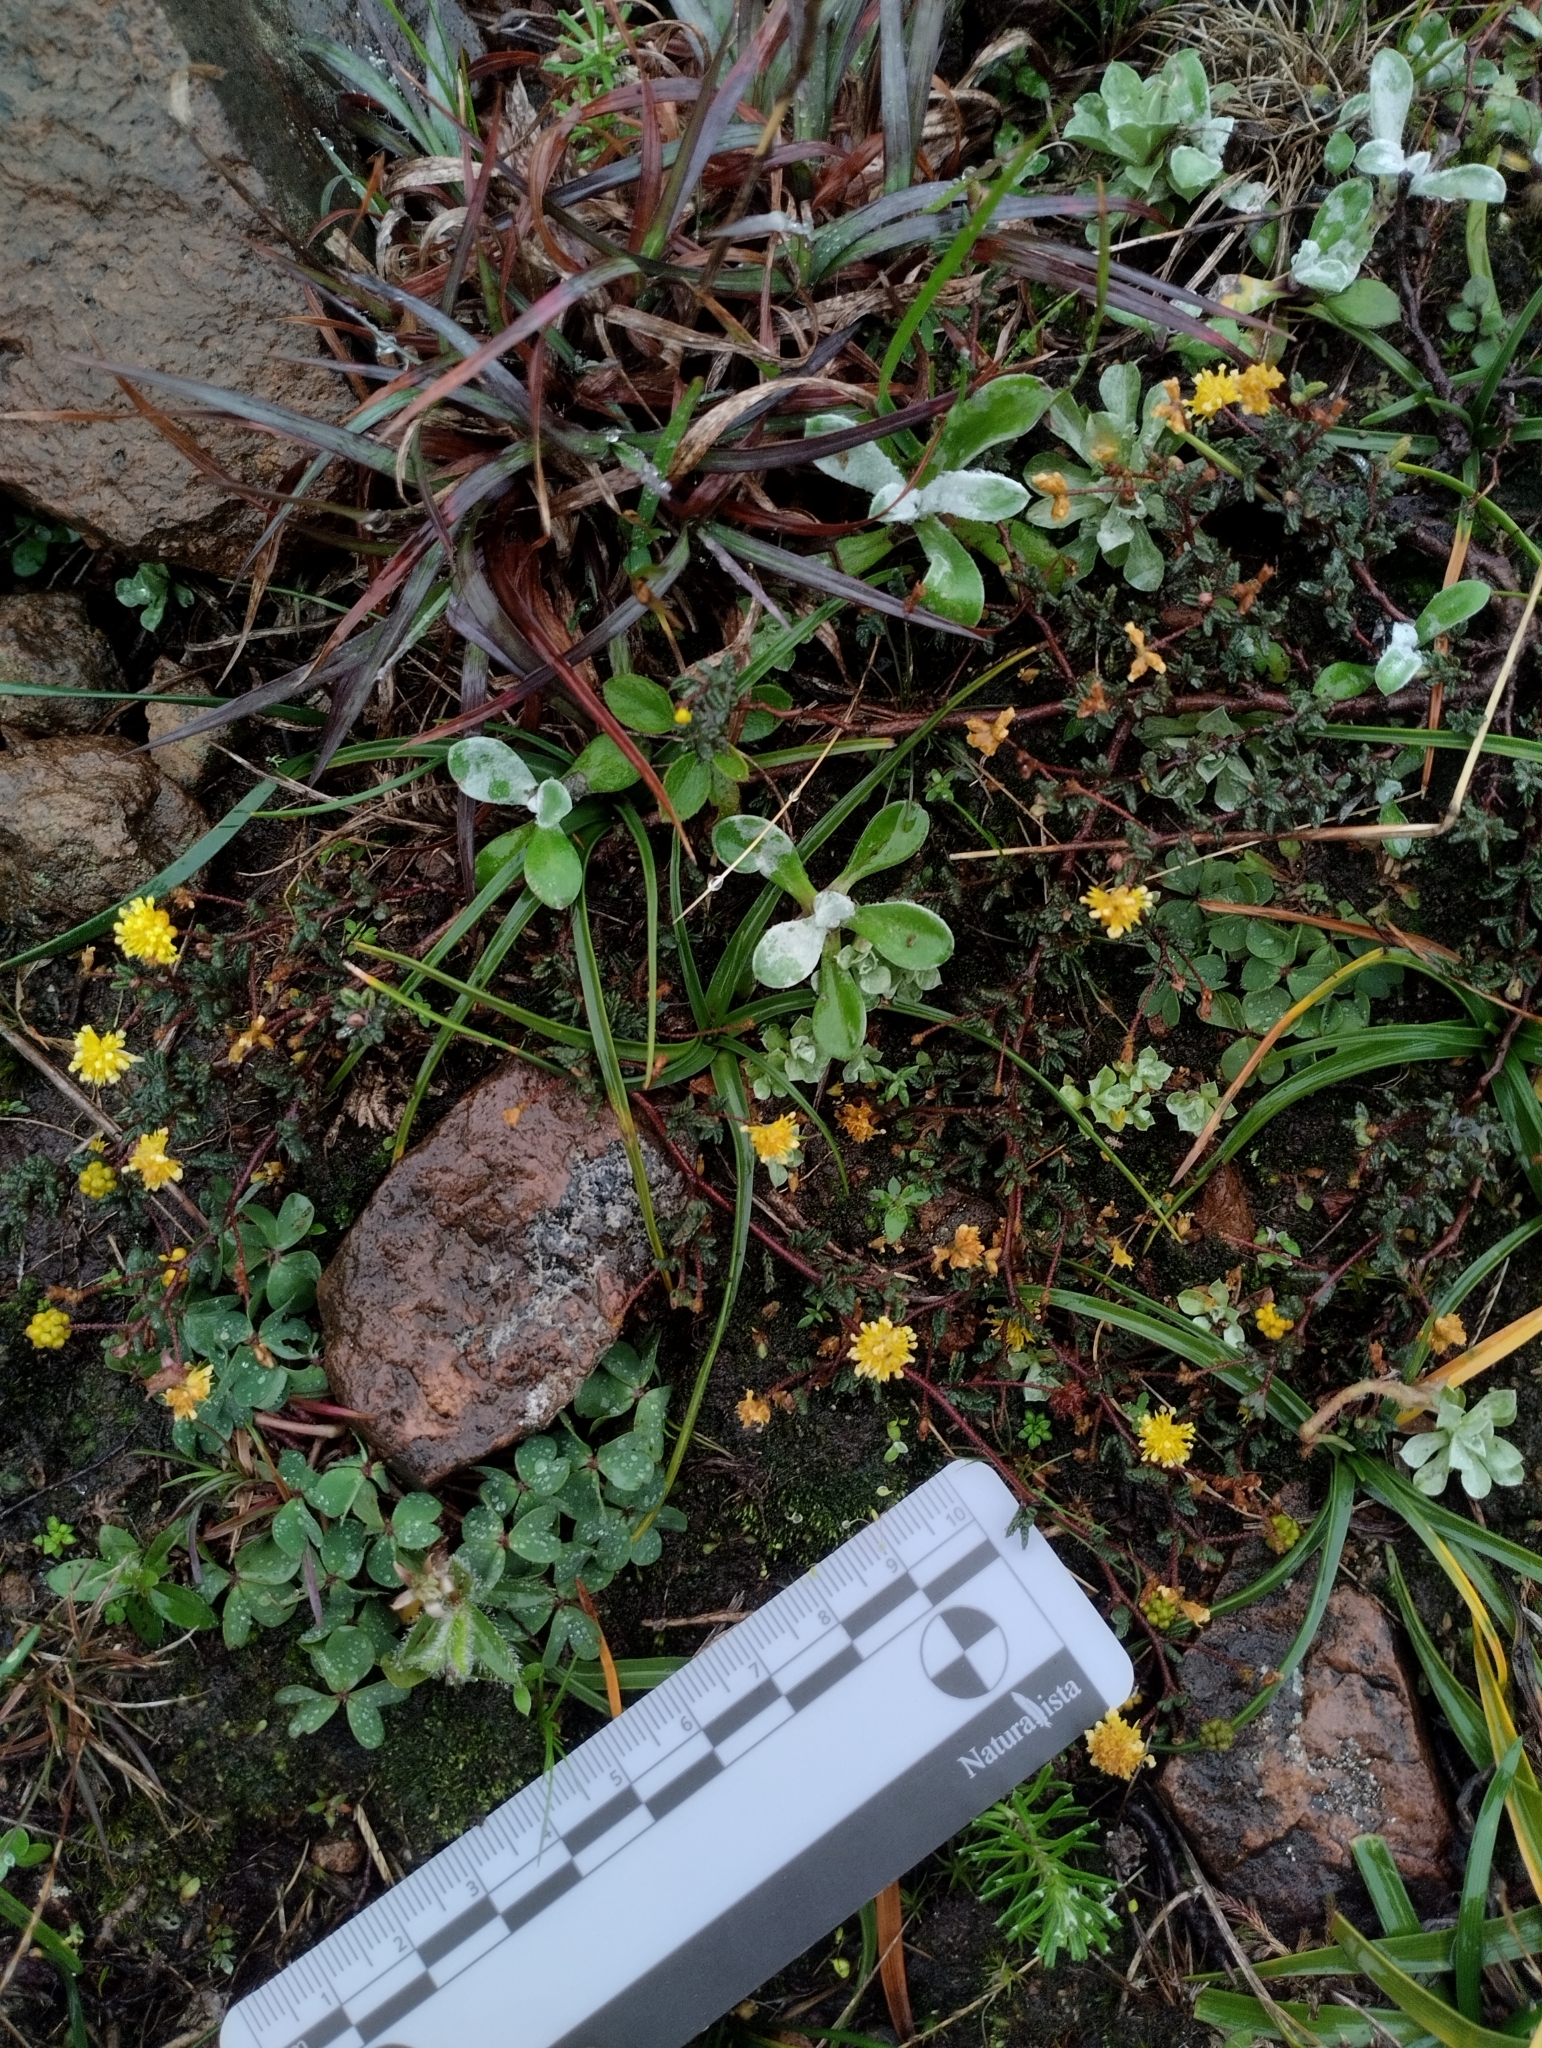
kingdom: Plantae
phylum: Tracheophyta
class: Magnoliopsida
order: Fabales
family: Fabaceae
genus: Mimosa
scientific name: Mimosa rocae
